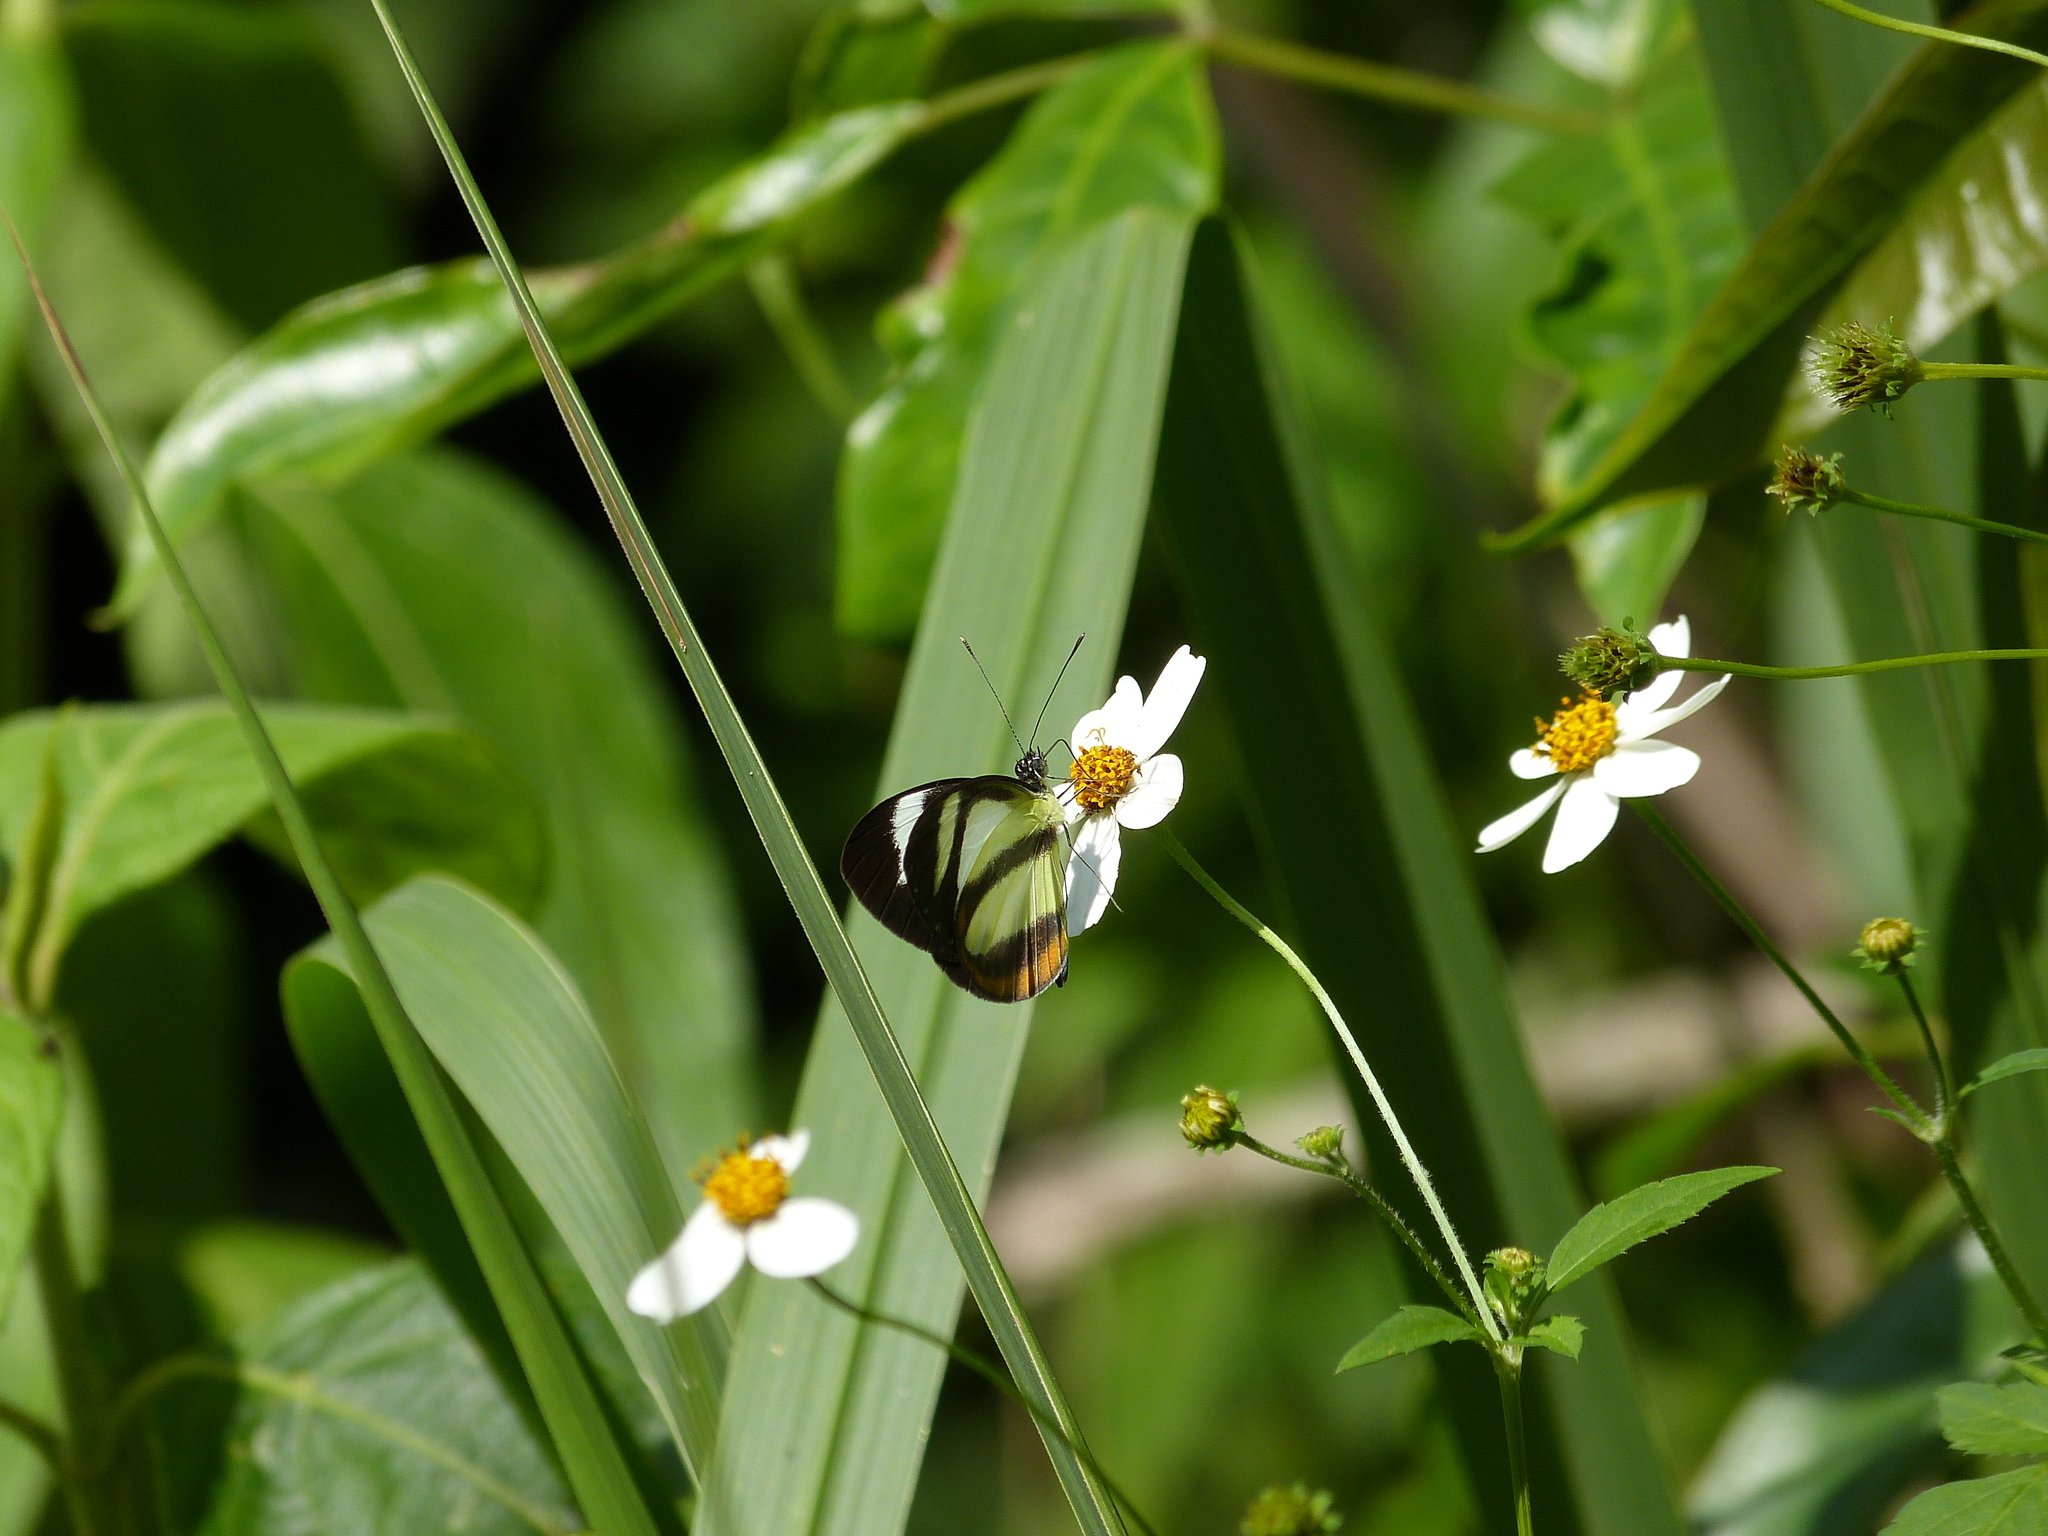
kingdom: Animalia
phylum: Arthropoda
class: Insecta
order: Lepidoptera
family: Pieridae
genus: Itaballia
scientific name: Itaballia pandosia
